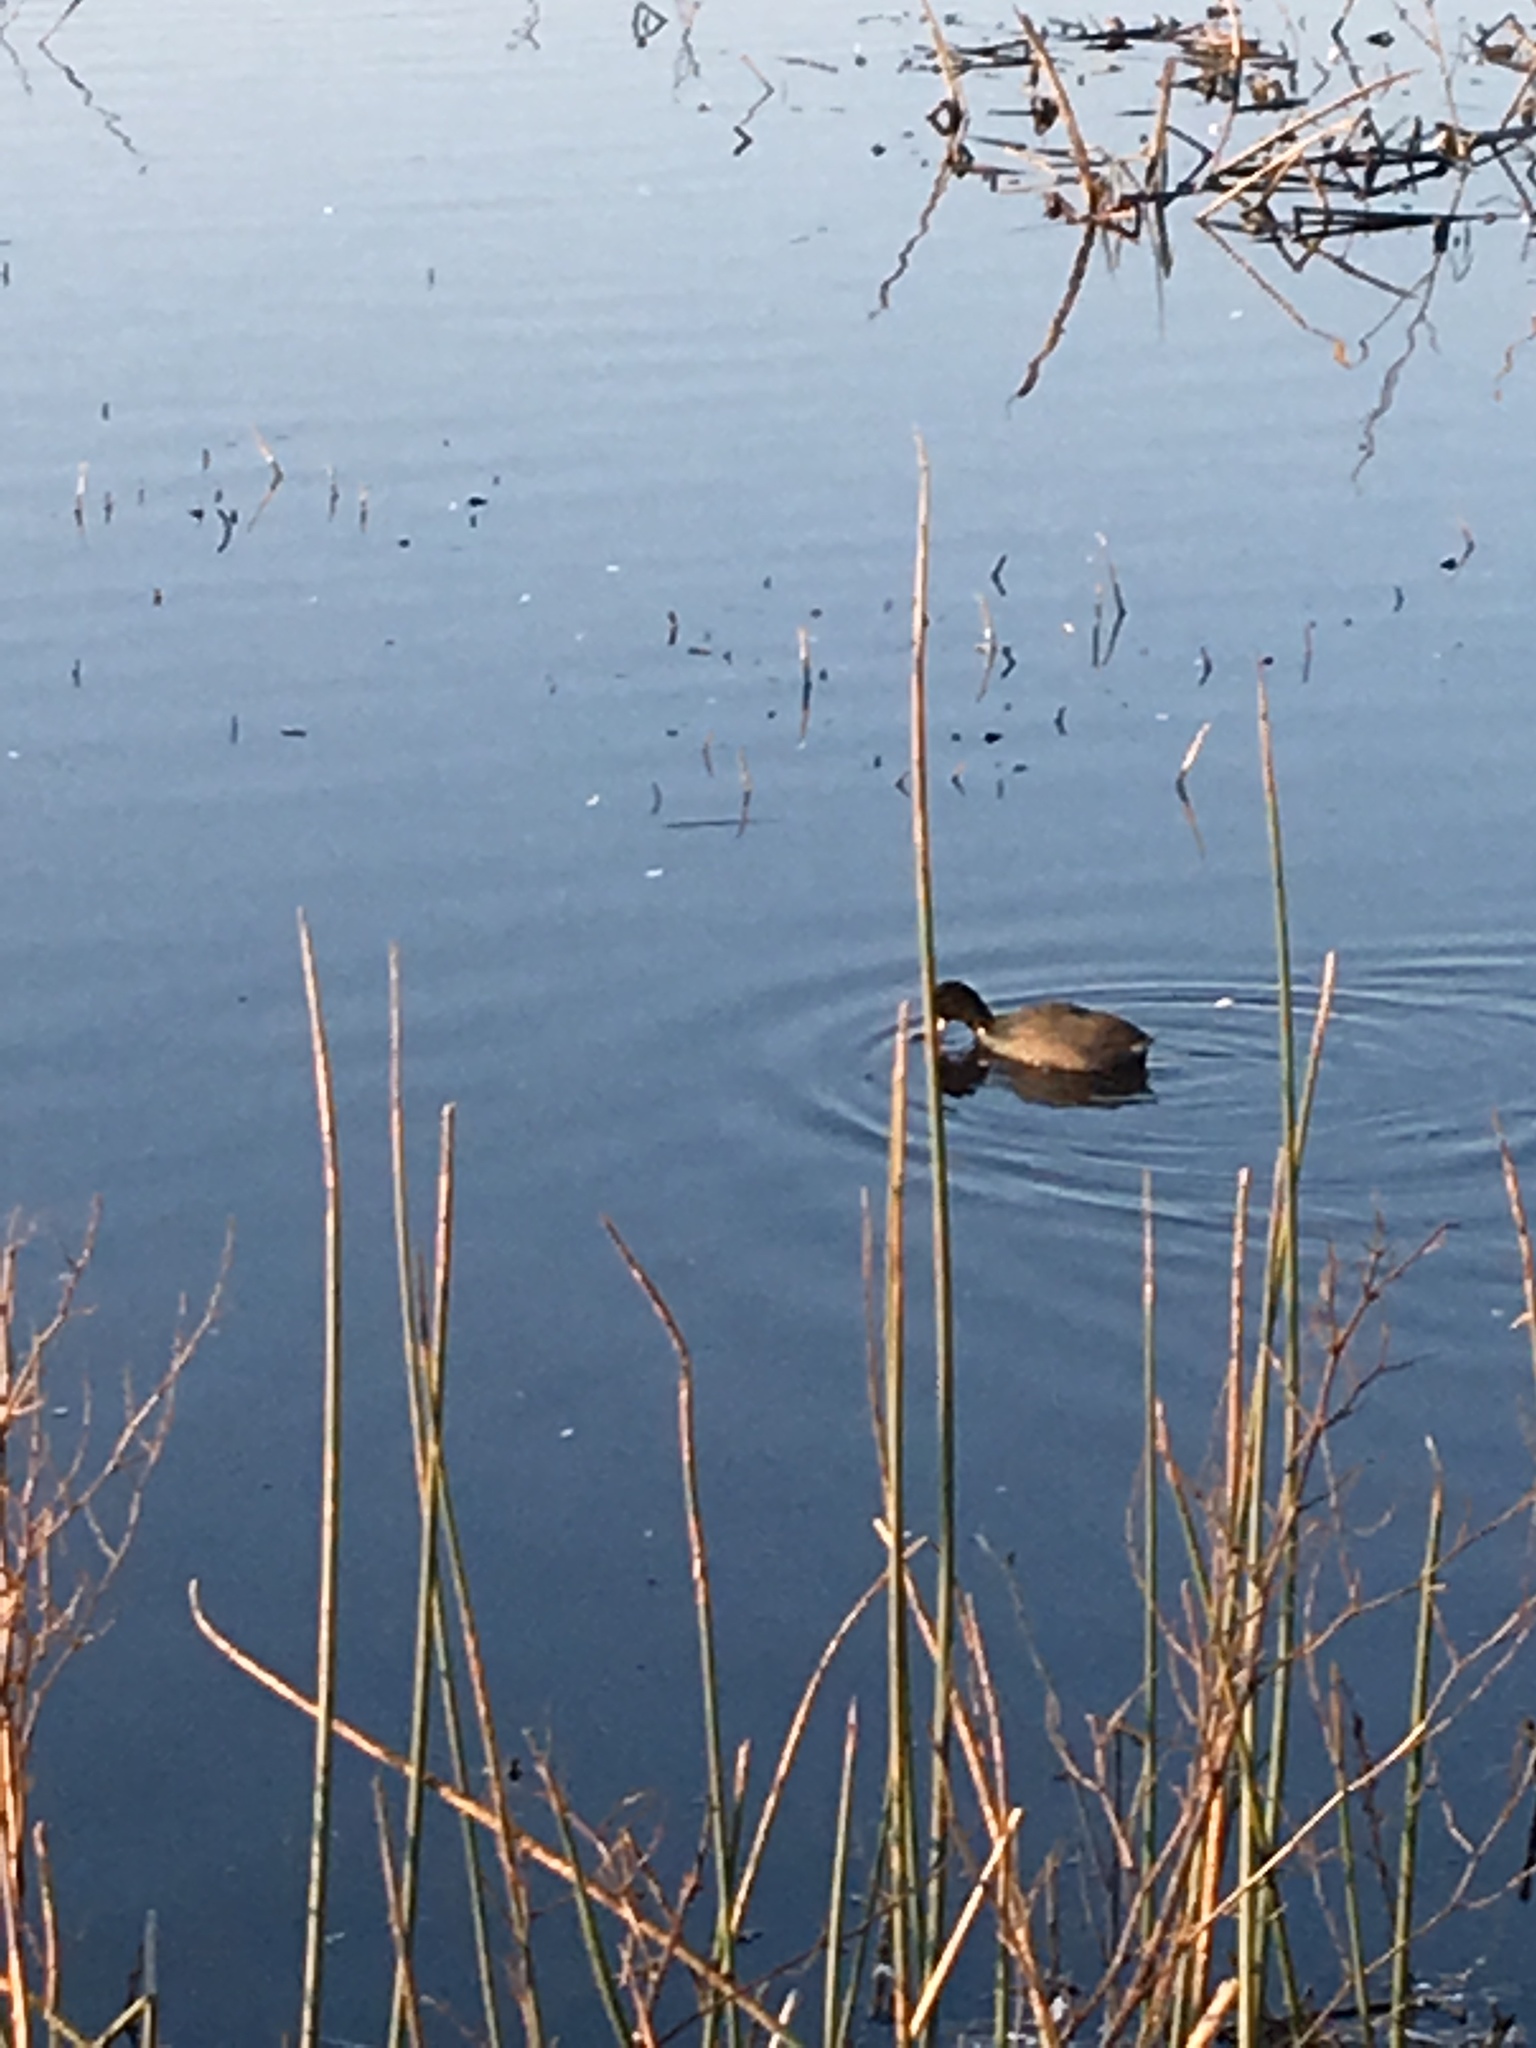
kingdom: Animalia
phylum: Chordata
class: Aves
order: Gruiformes
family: Rallidae
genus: Fulica
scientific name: Fulica americana
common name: American coot
